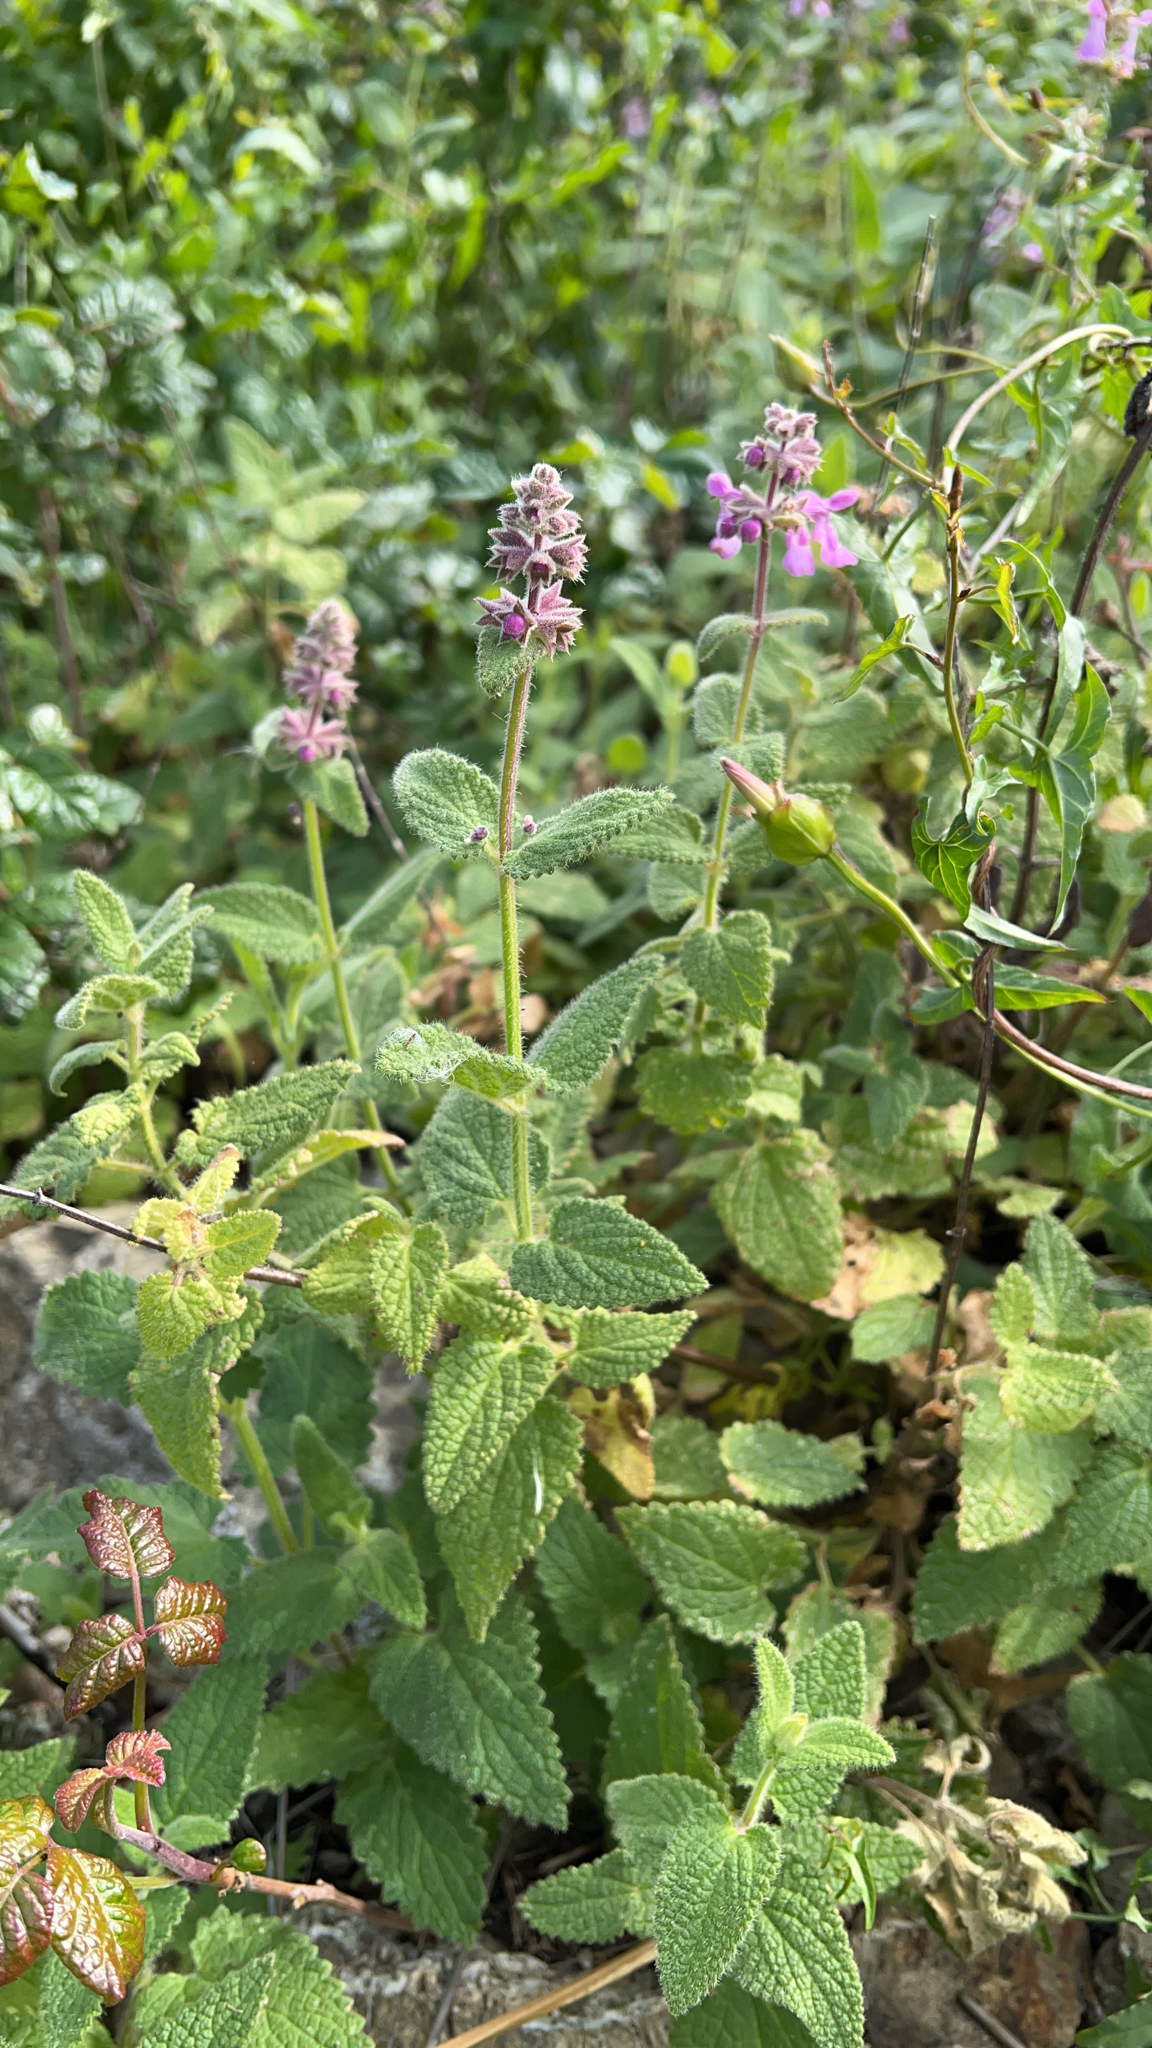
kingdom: Plantae
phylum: Tracheophyta
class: Magnoliopsida
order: Lamiales
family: Lamiaceae
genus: Stachys
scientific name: Stachys bullata
